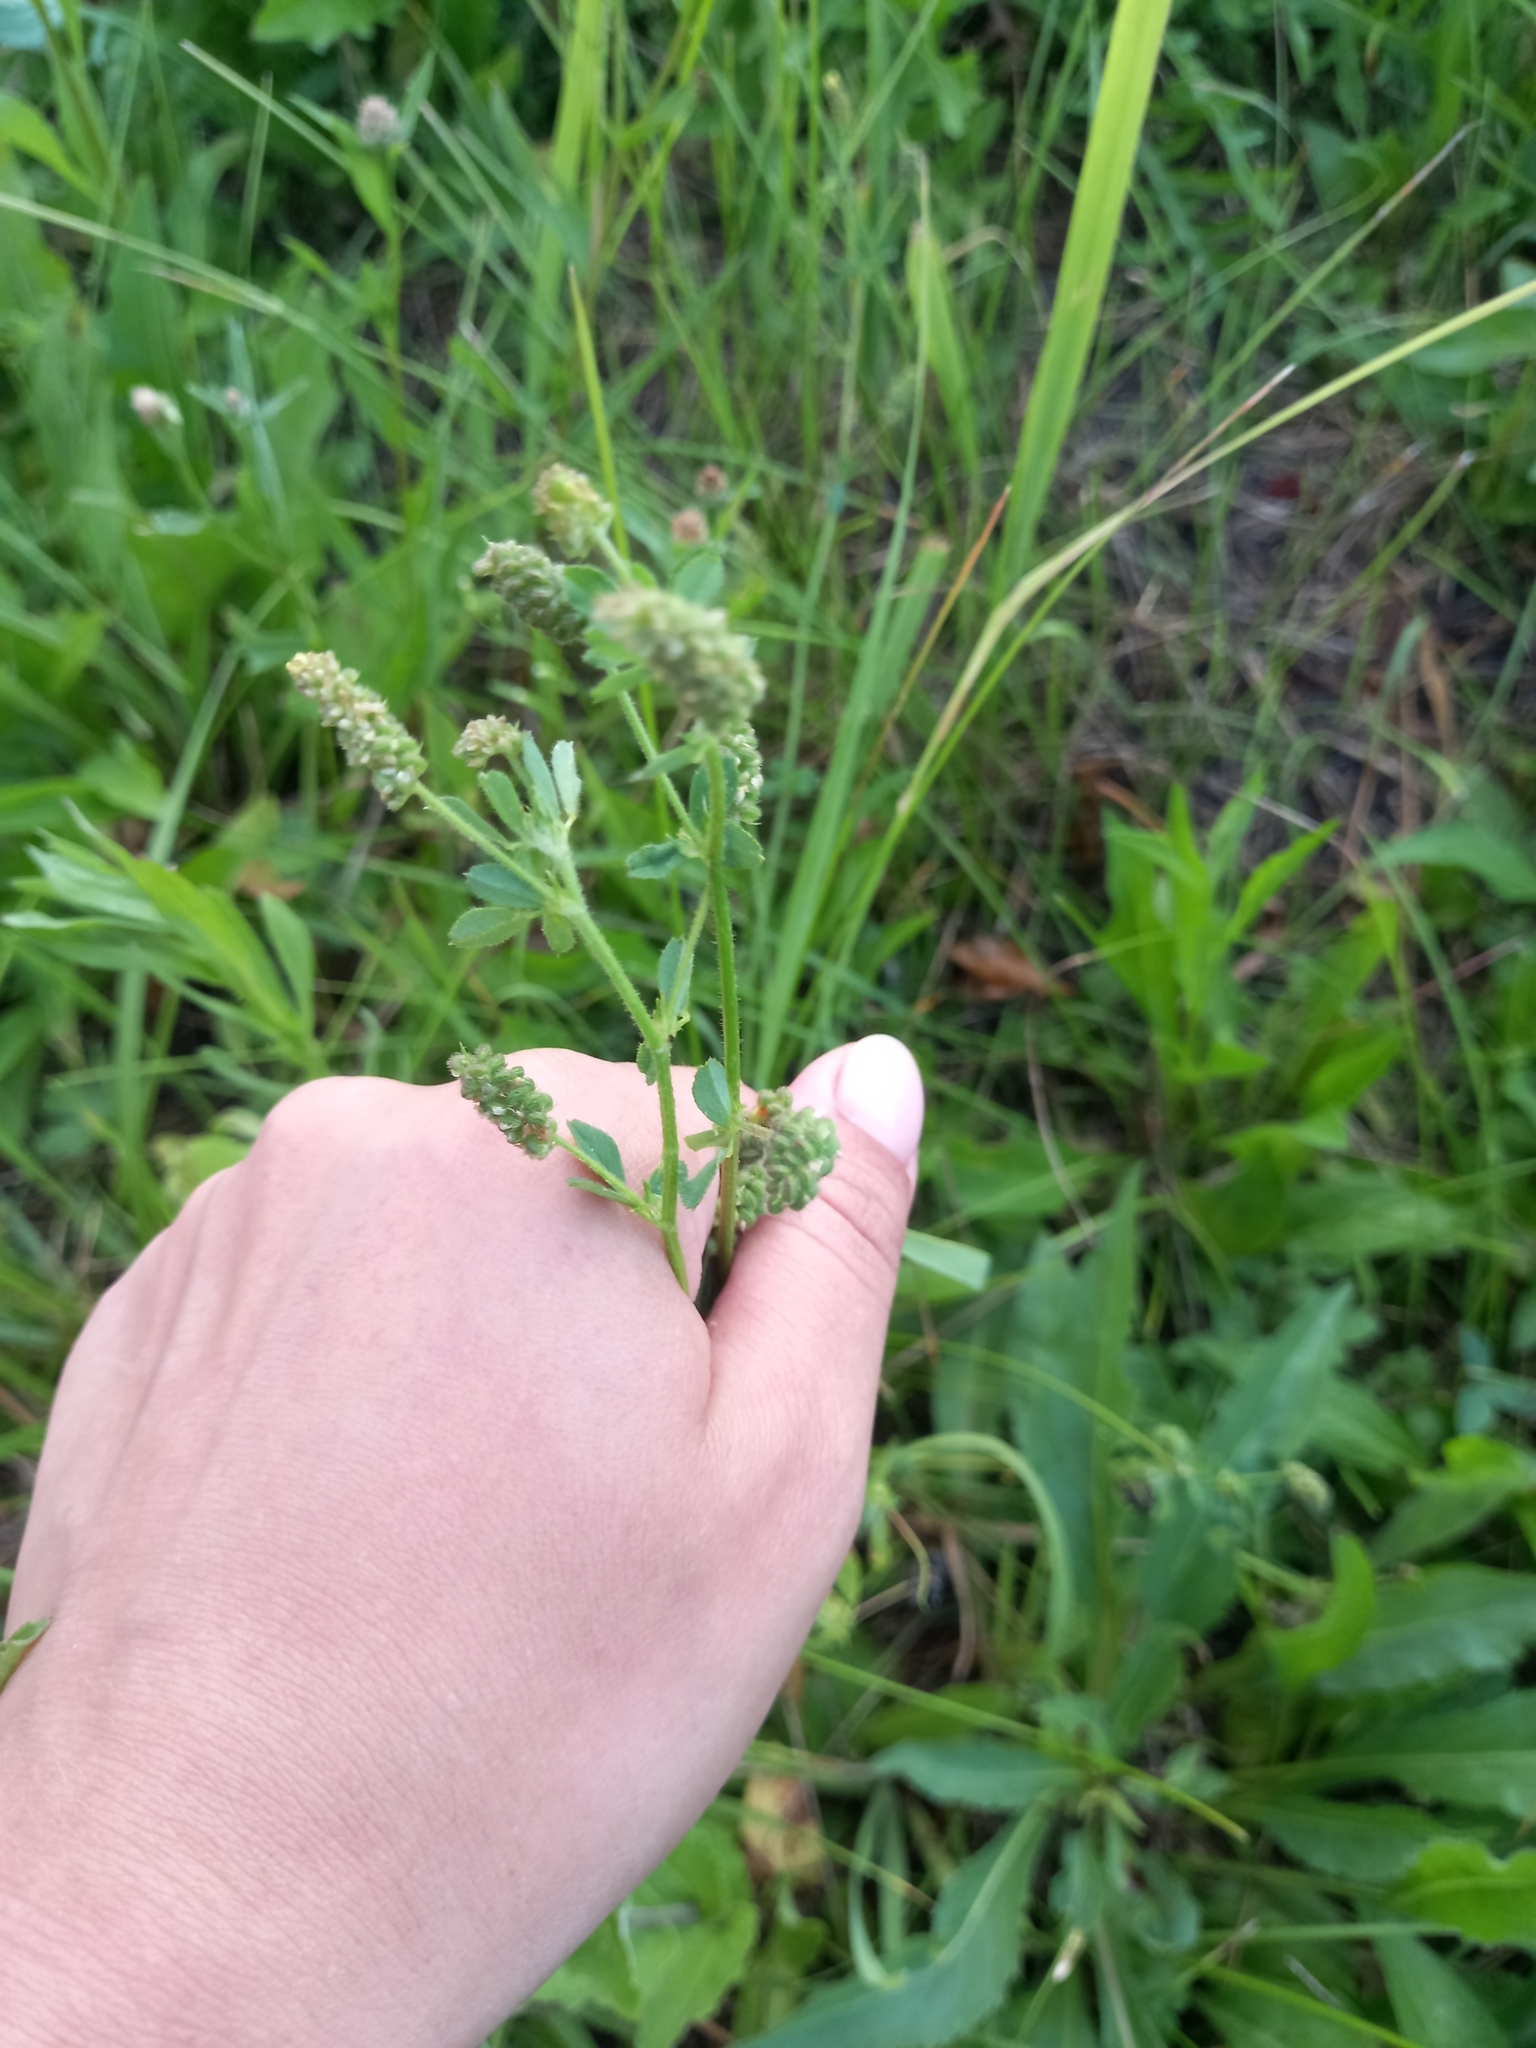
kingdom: Plantae
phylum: Tracheophyta
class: Magnoliopsida
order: Fabales
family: Fabaceae
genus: Medicago
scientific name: Medicago lupulina
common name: Black medick
